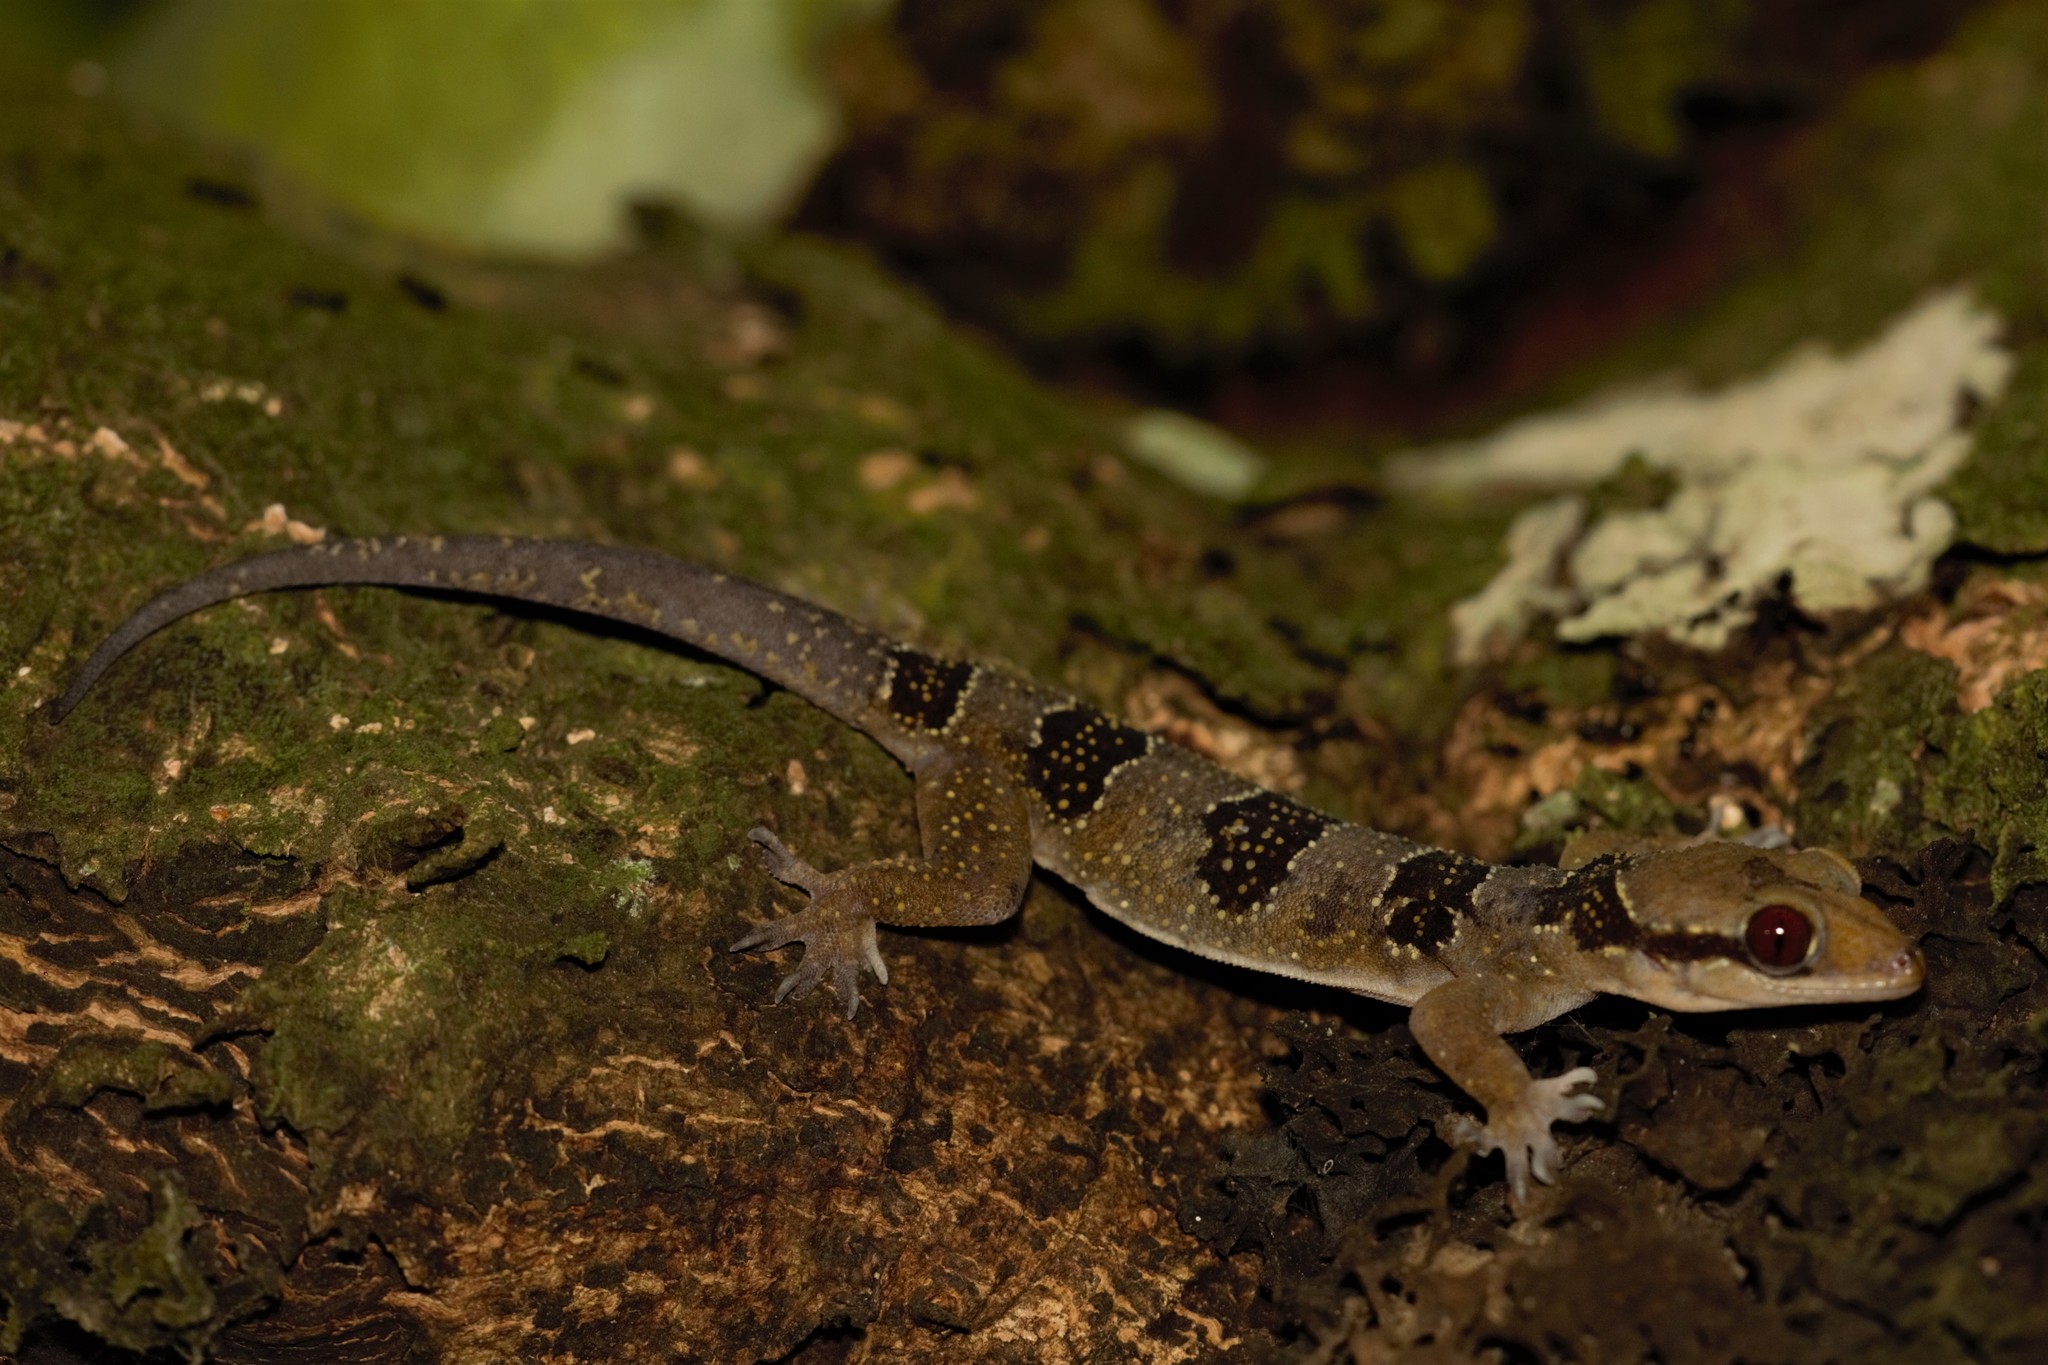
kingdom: Animalia
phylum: Chordata
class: Squamata
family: Gekkonidae
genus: Hemidactylus
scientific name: Hemidactylus eniangii
